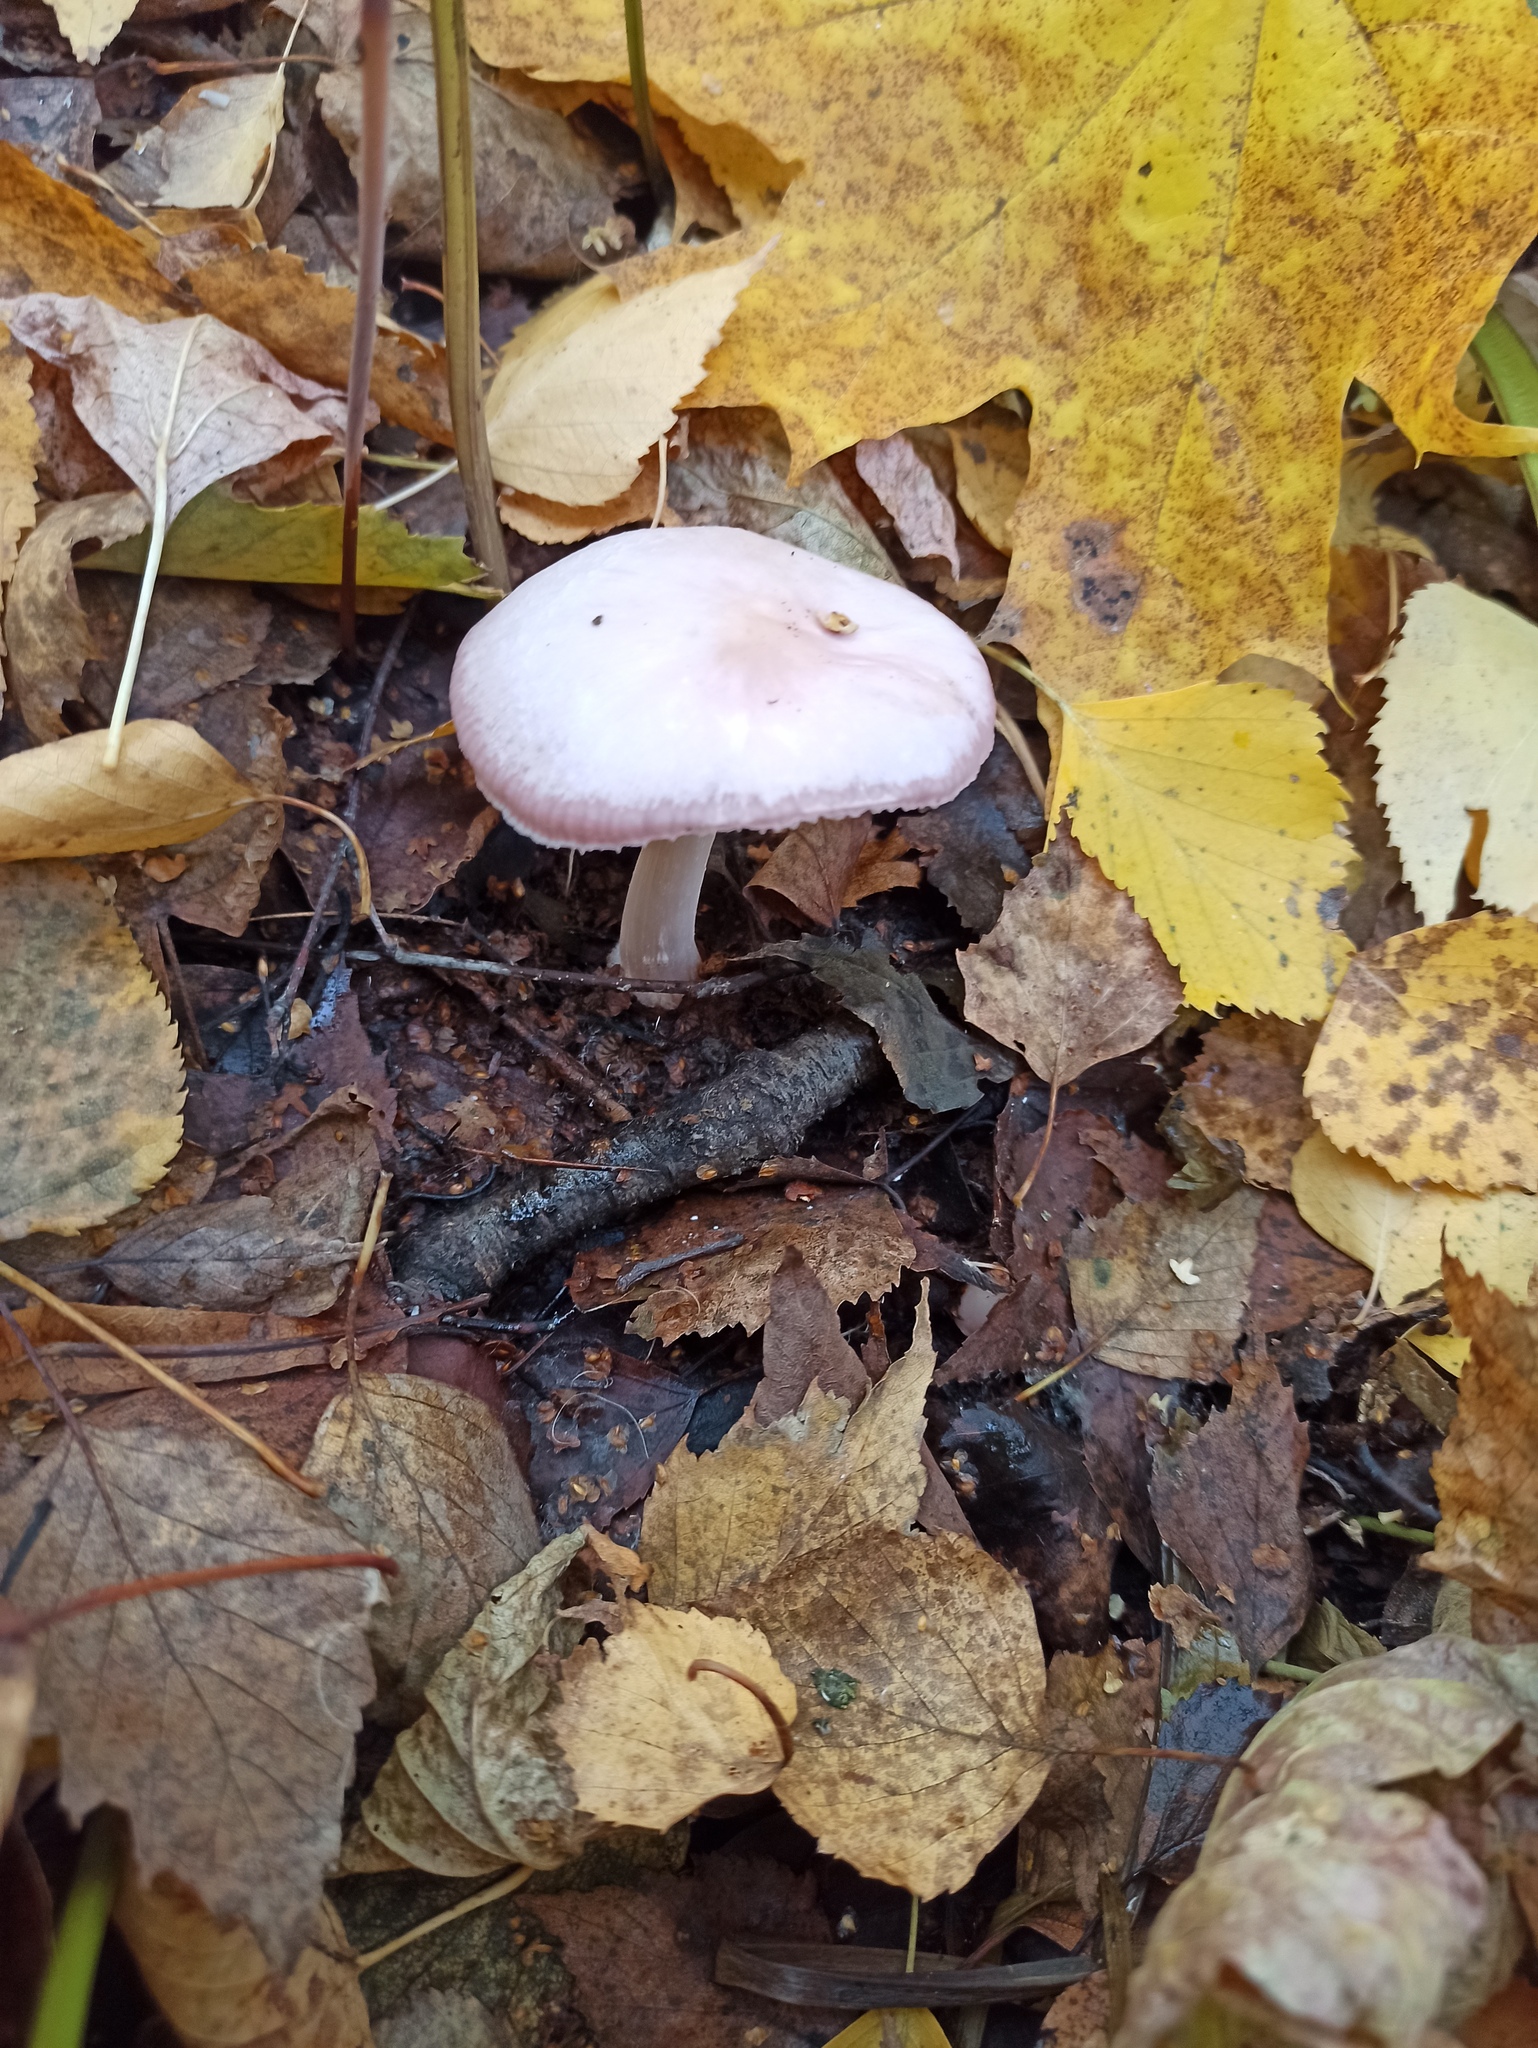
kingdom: Fungi
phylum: Basidiomycota
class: Agaricomycetes
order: Agaricales
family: Mycenaceae
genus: Mycena
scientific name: Mycena rosea
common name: Rosy bonnet
